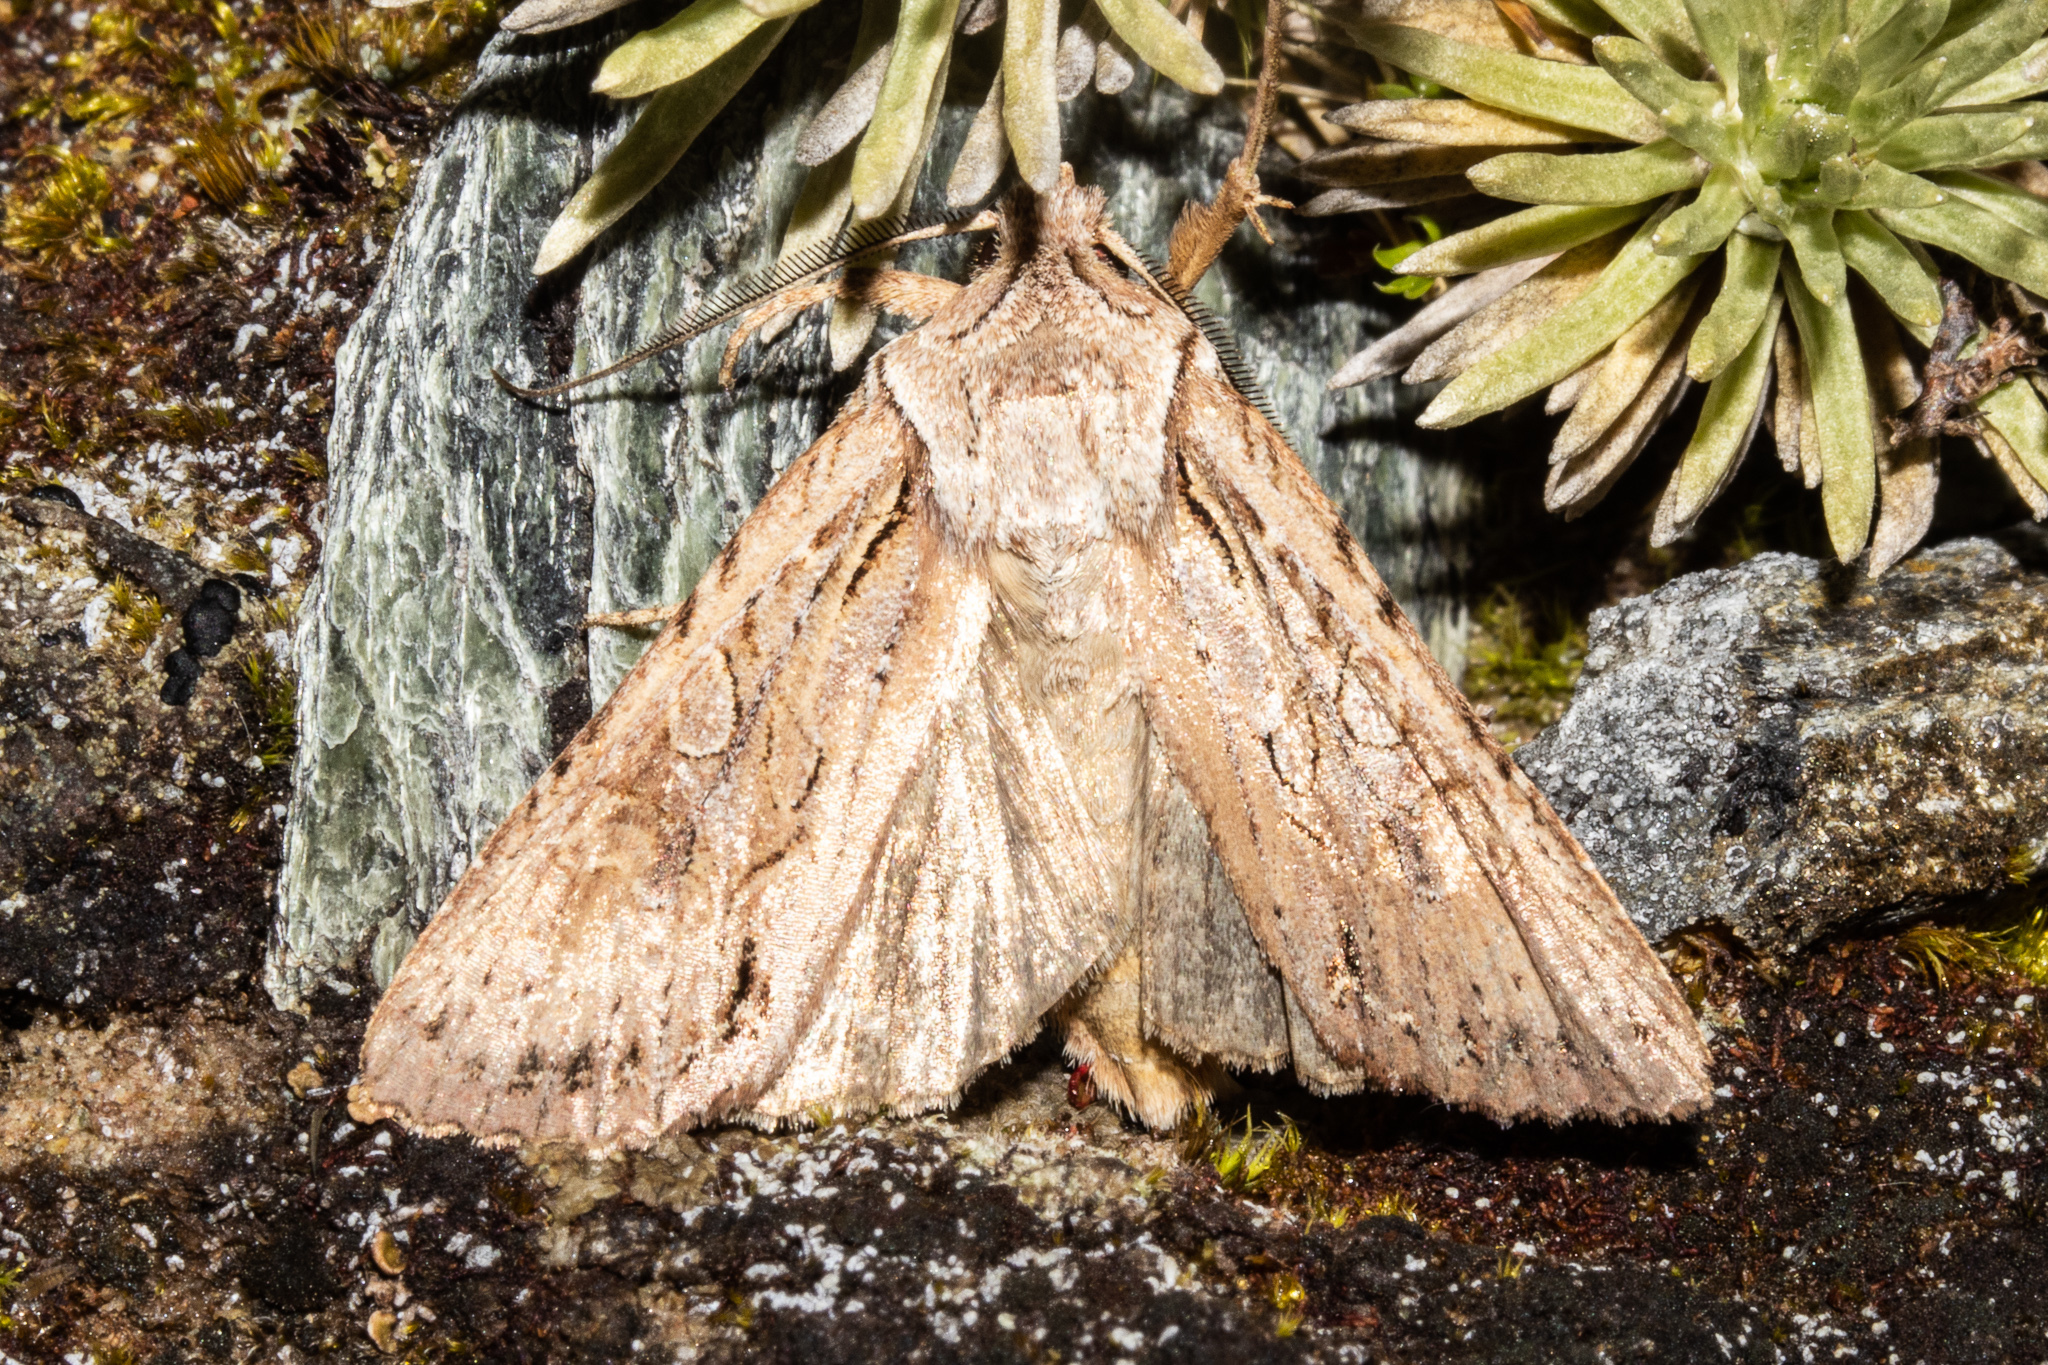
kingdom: Animalia
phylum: Arthropoda
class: Insecta
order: Lepidoptera
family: Noctuidae
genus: Ichneutica
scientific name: Ichneutica
